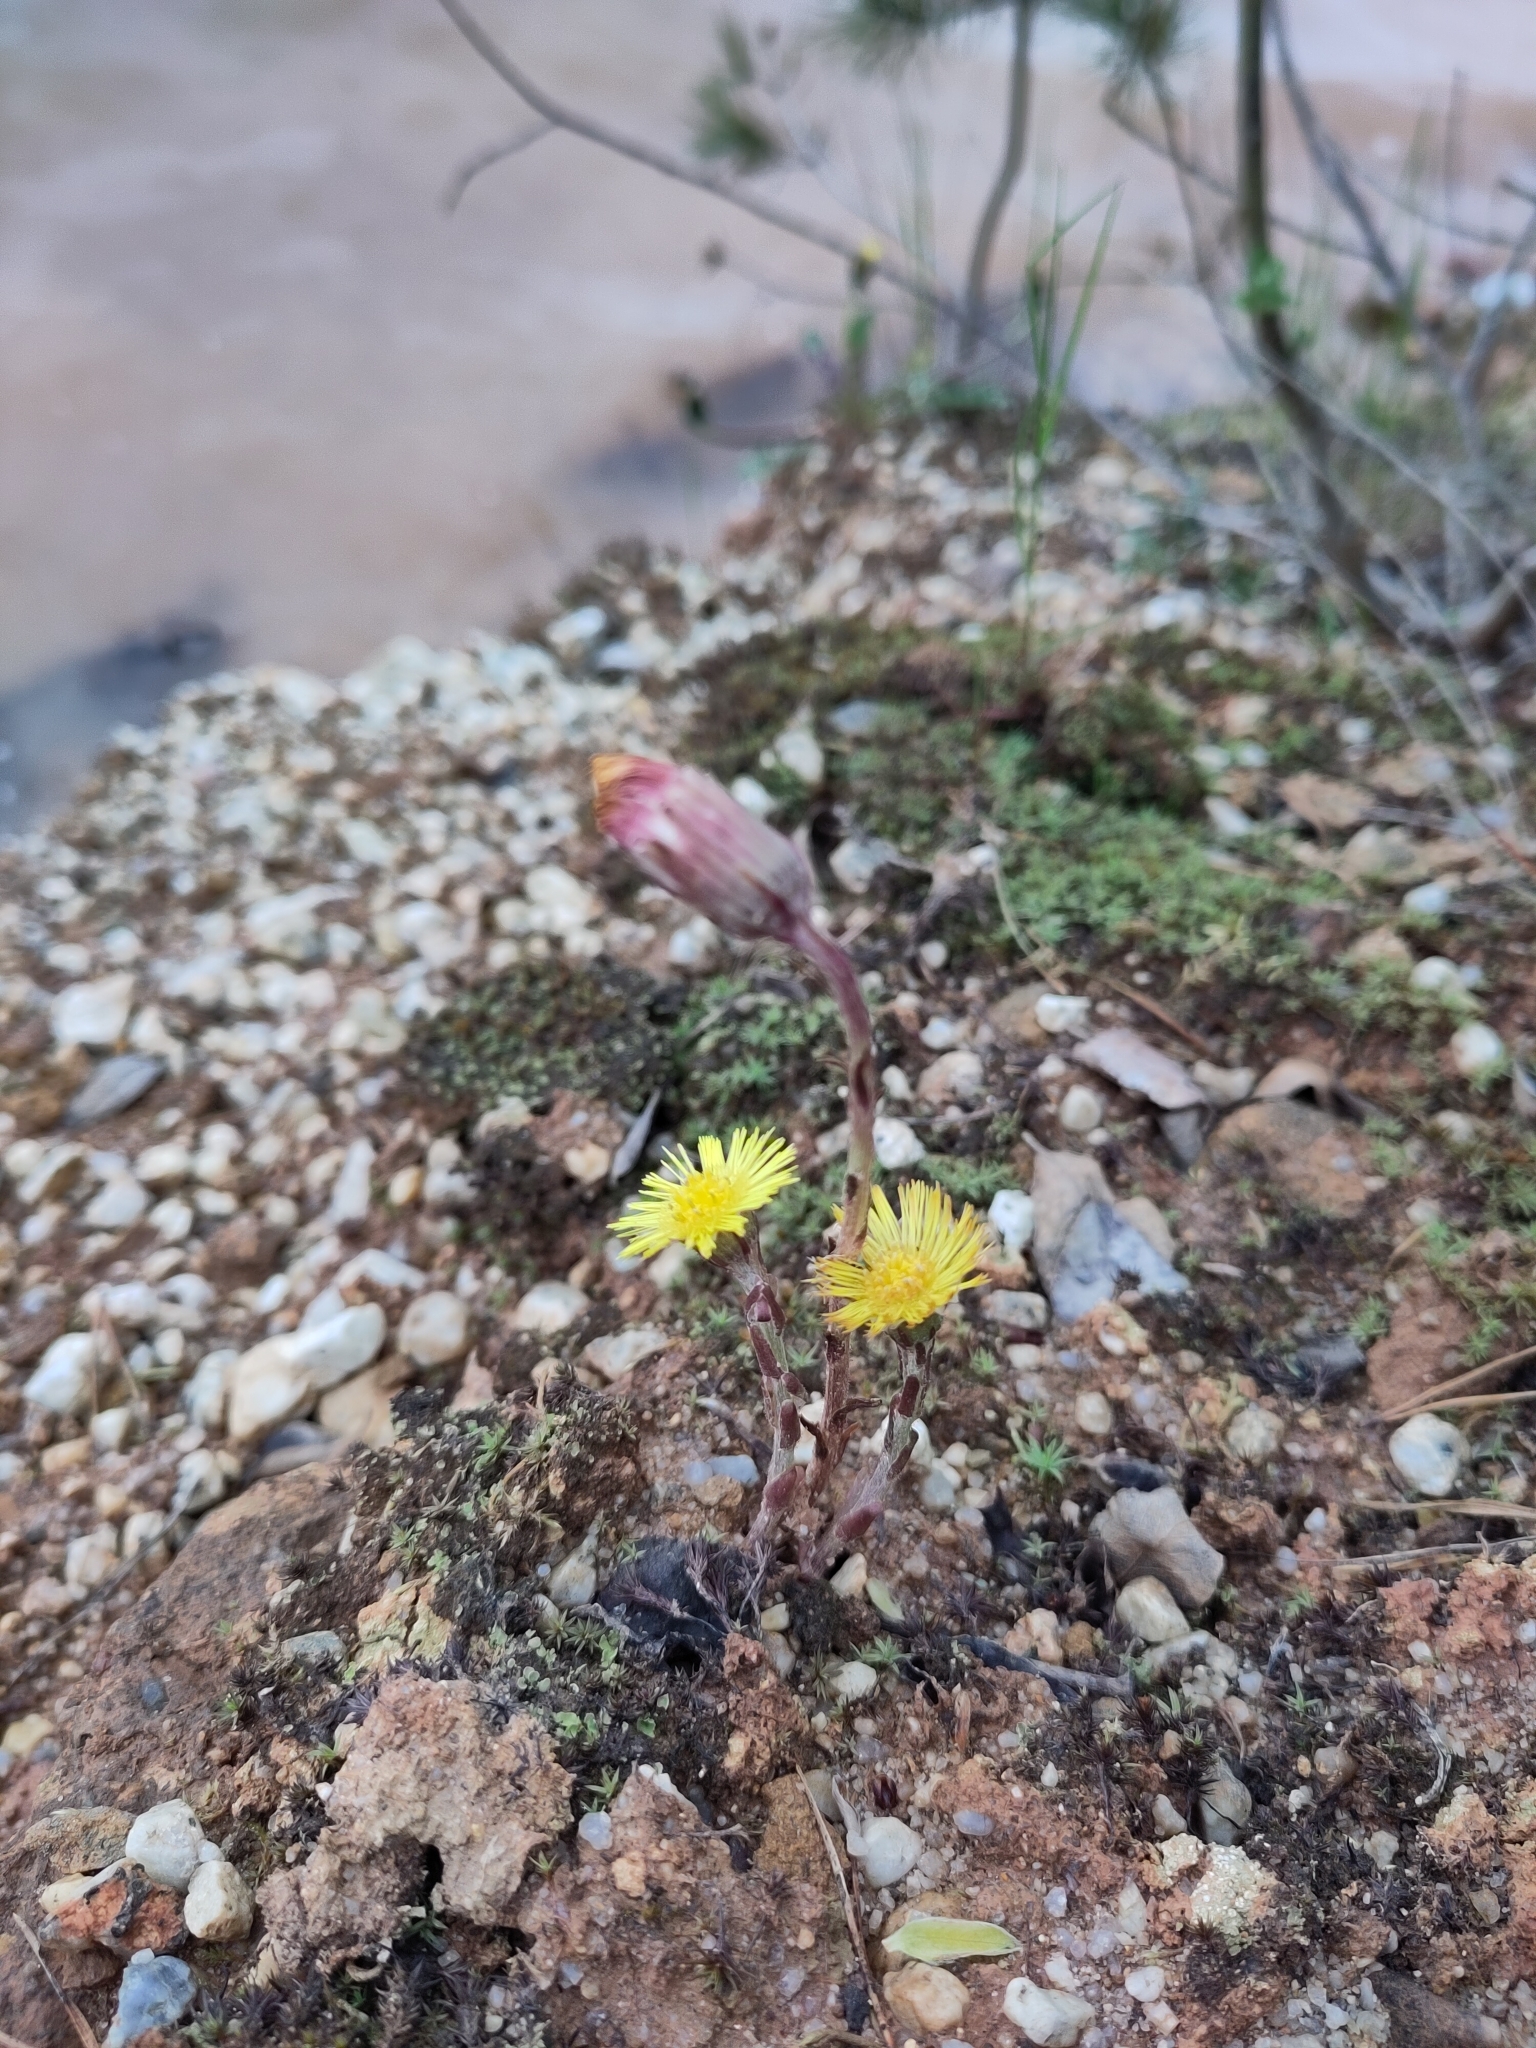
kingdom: Plantae
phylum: Tracheophyta
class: Magnoliopsida
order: Asterales
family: Asteraceae
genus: Tussilago
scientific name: Tussilago farfara
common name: Coltsfoot
